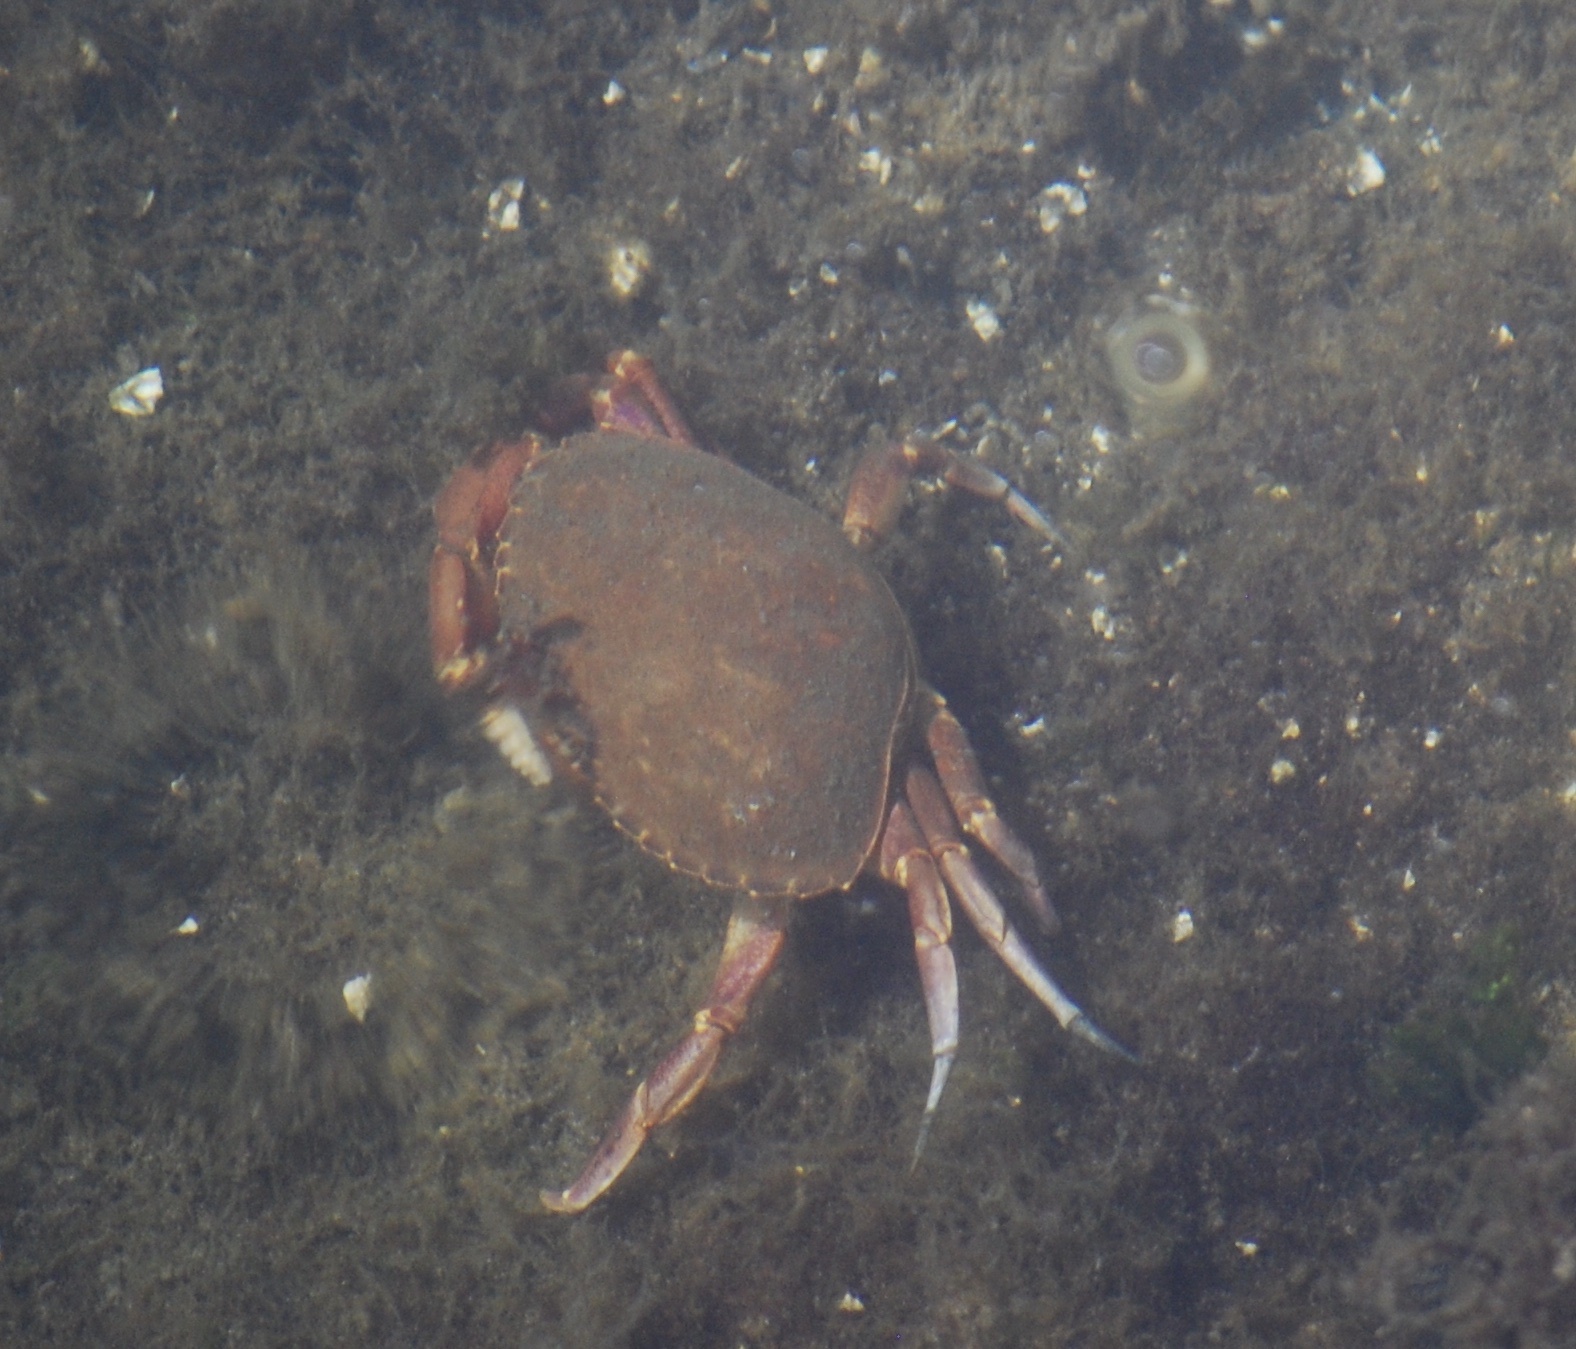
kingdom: Animalia
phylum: Arthropoda
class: Malacostraca
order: Decapoda
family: Cancridae
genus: Metacarcinus
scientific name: Metacarcinus gracilis
